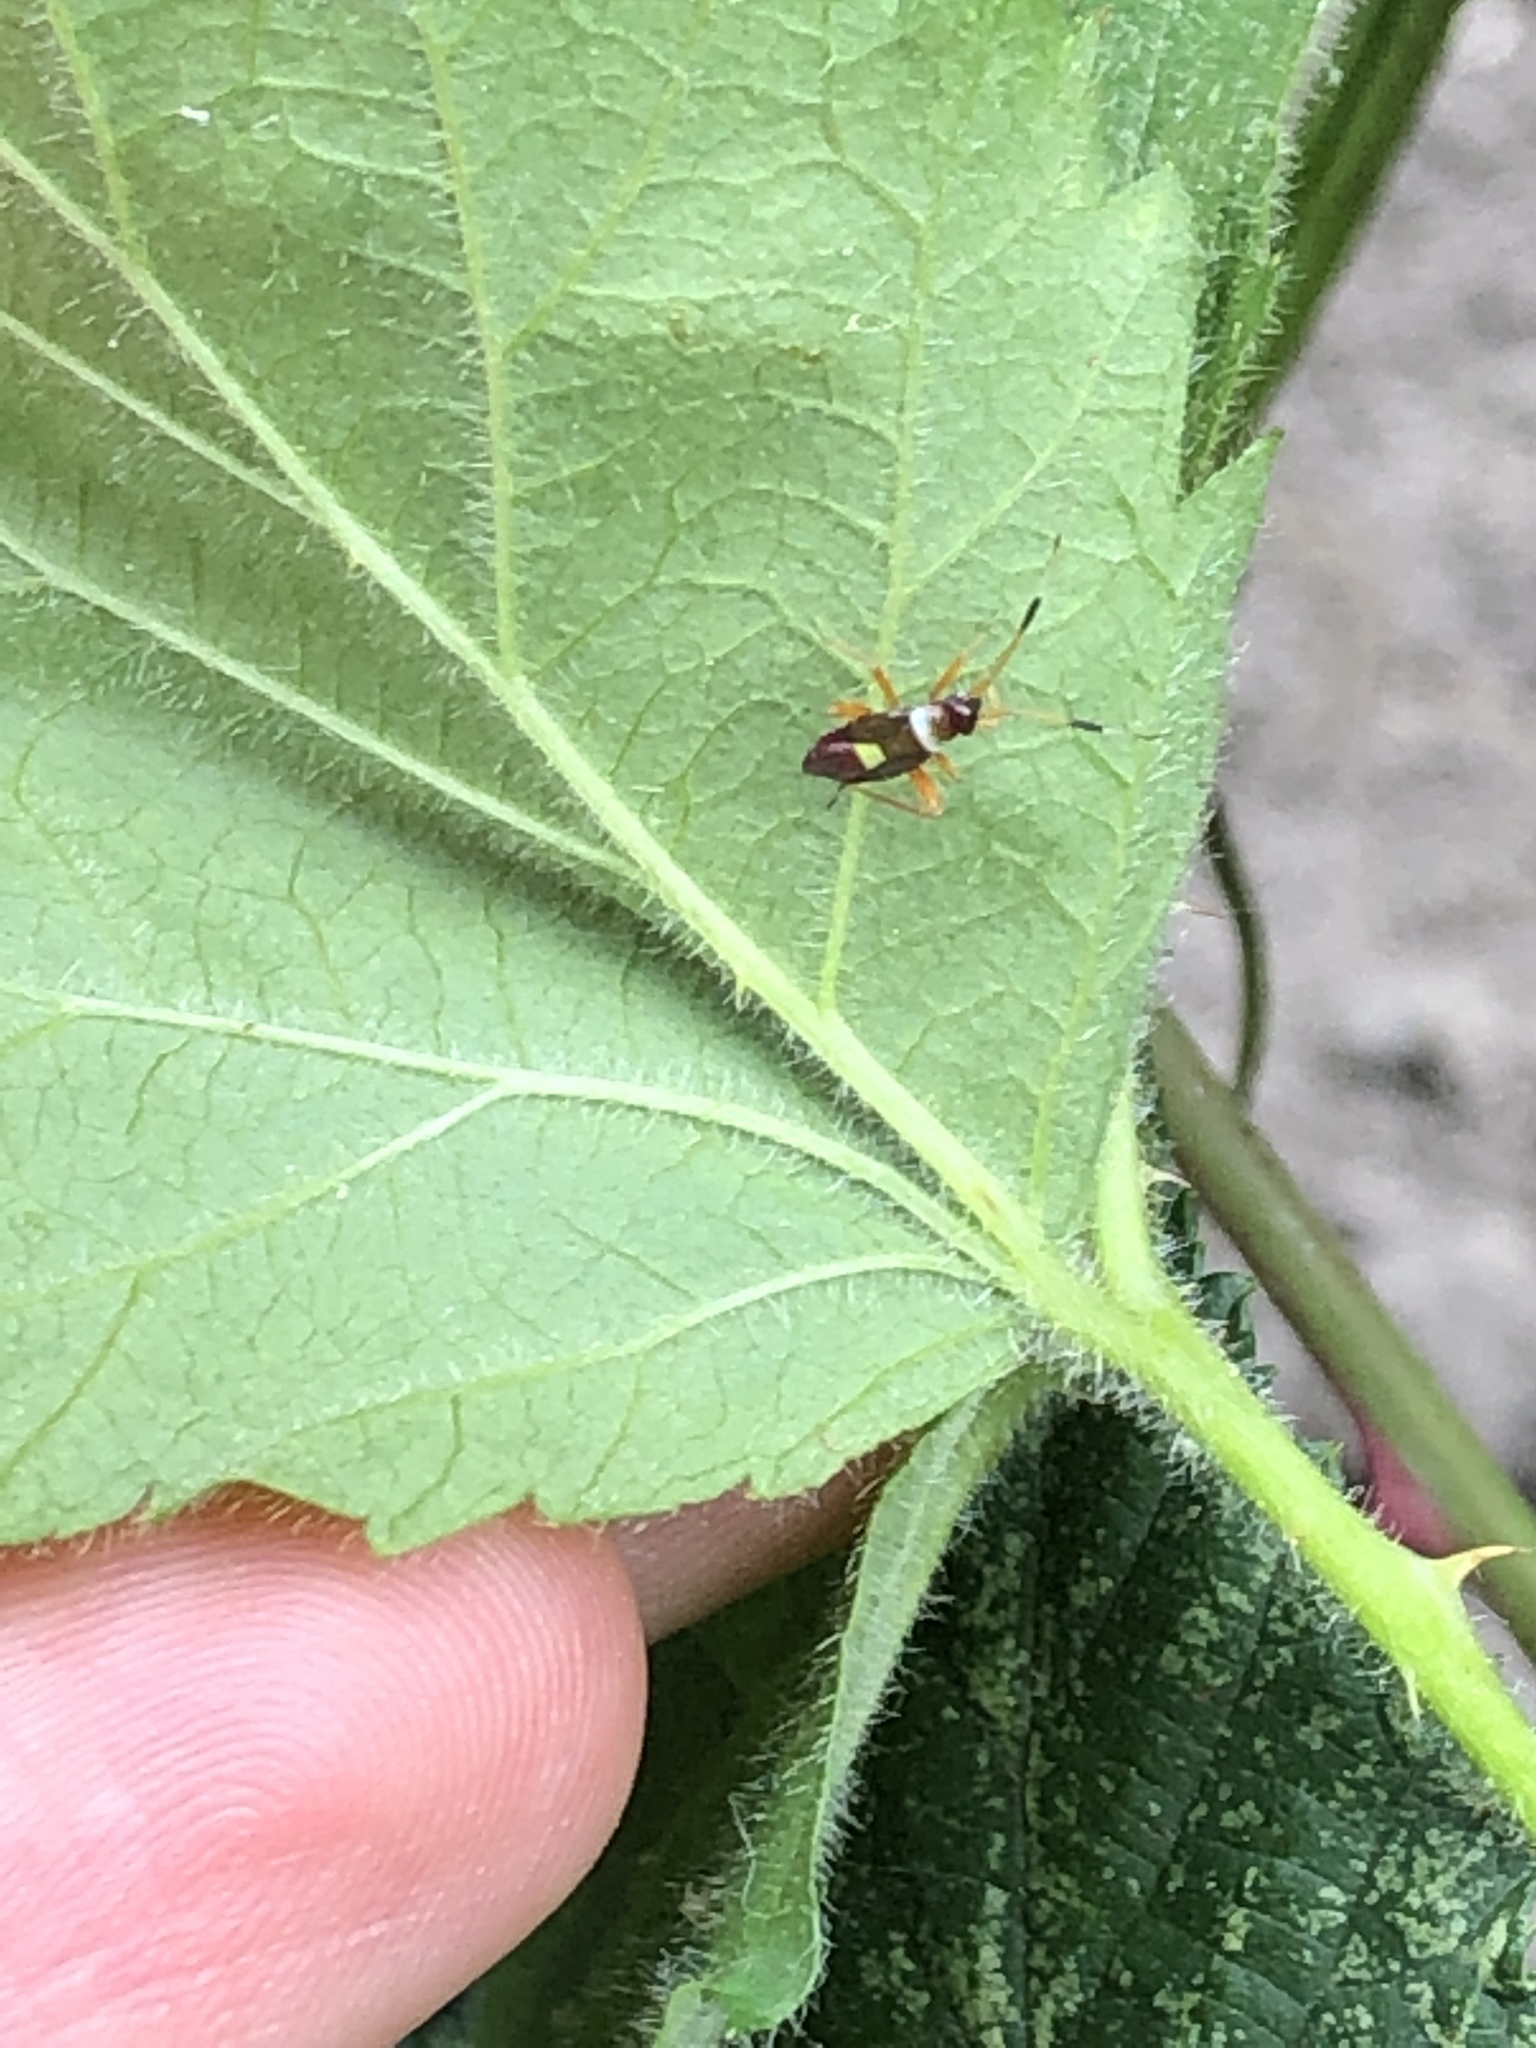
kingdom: Animalia
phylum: Arthropoda
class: Insecta
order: Hemiptera
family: Miridae
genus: Closterotomus
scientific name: Closterotomus biclavatus
